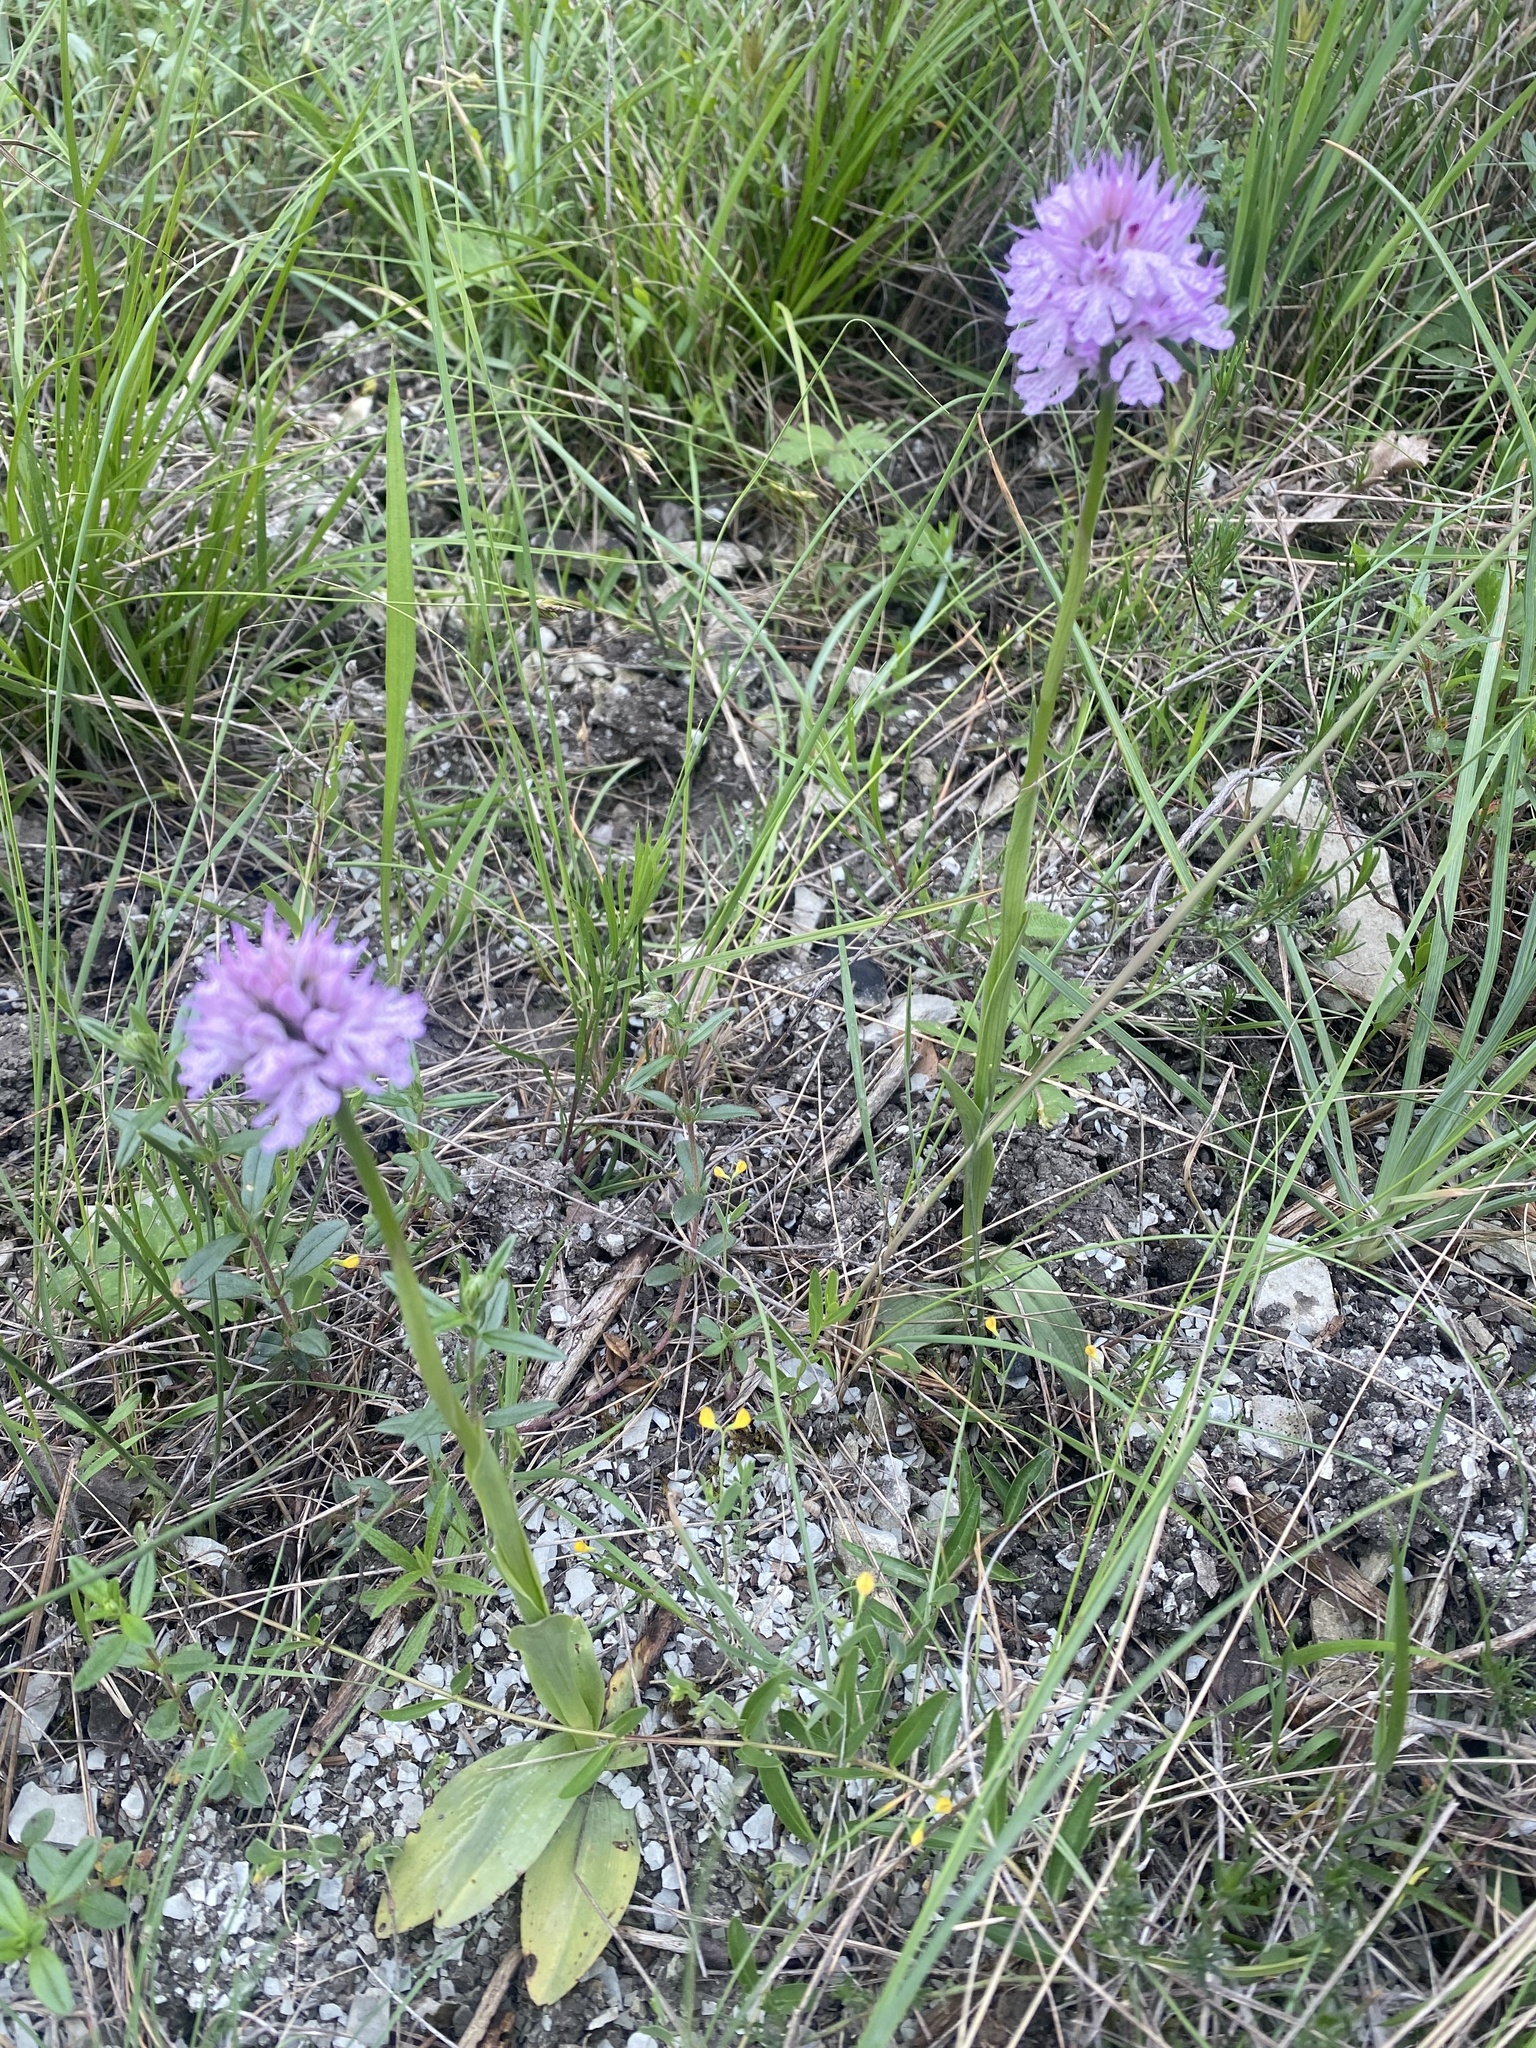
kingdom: Plantae
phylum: Tracheophyta
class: Liliopsida
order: Asparagales
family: Orchidaceae
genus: Neotinea
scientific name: Neotinea tridentata
